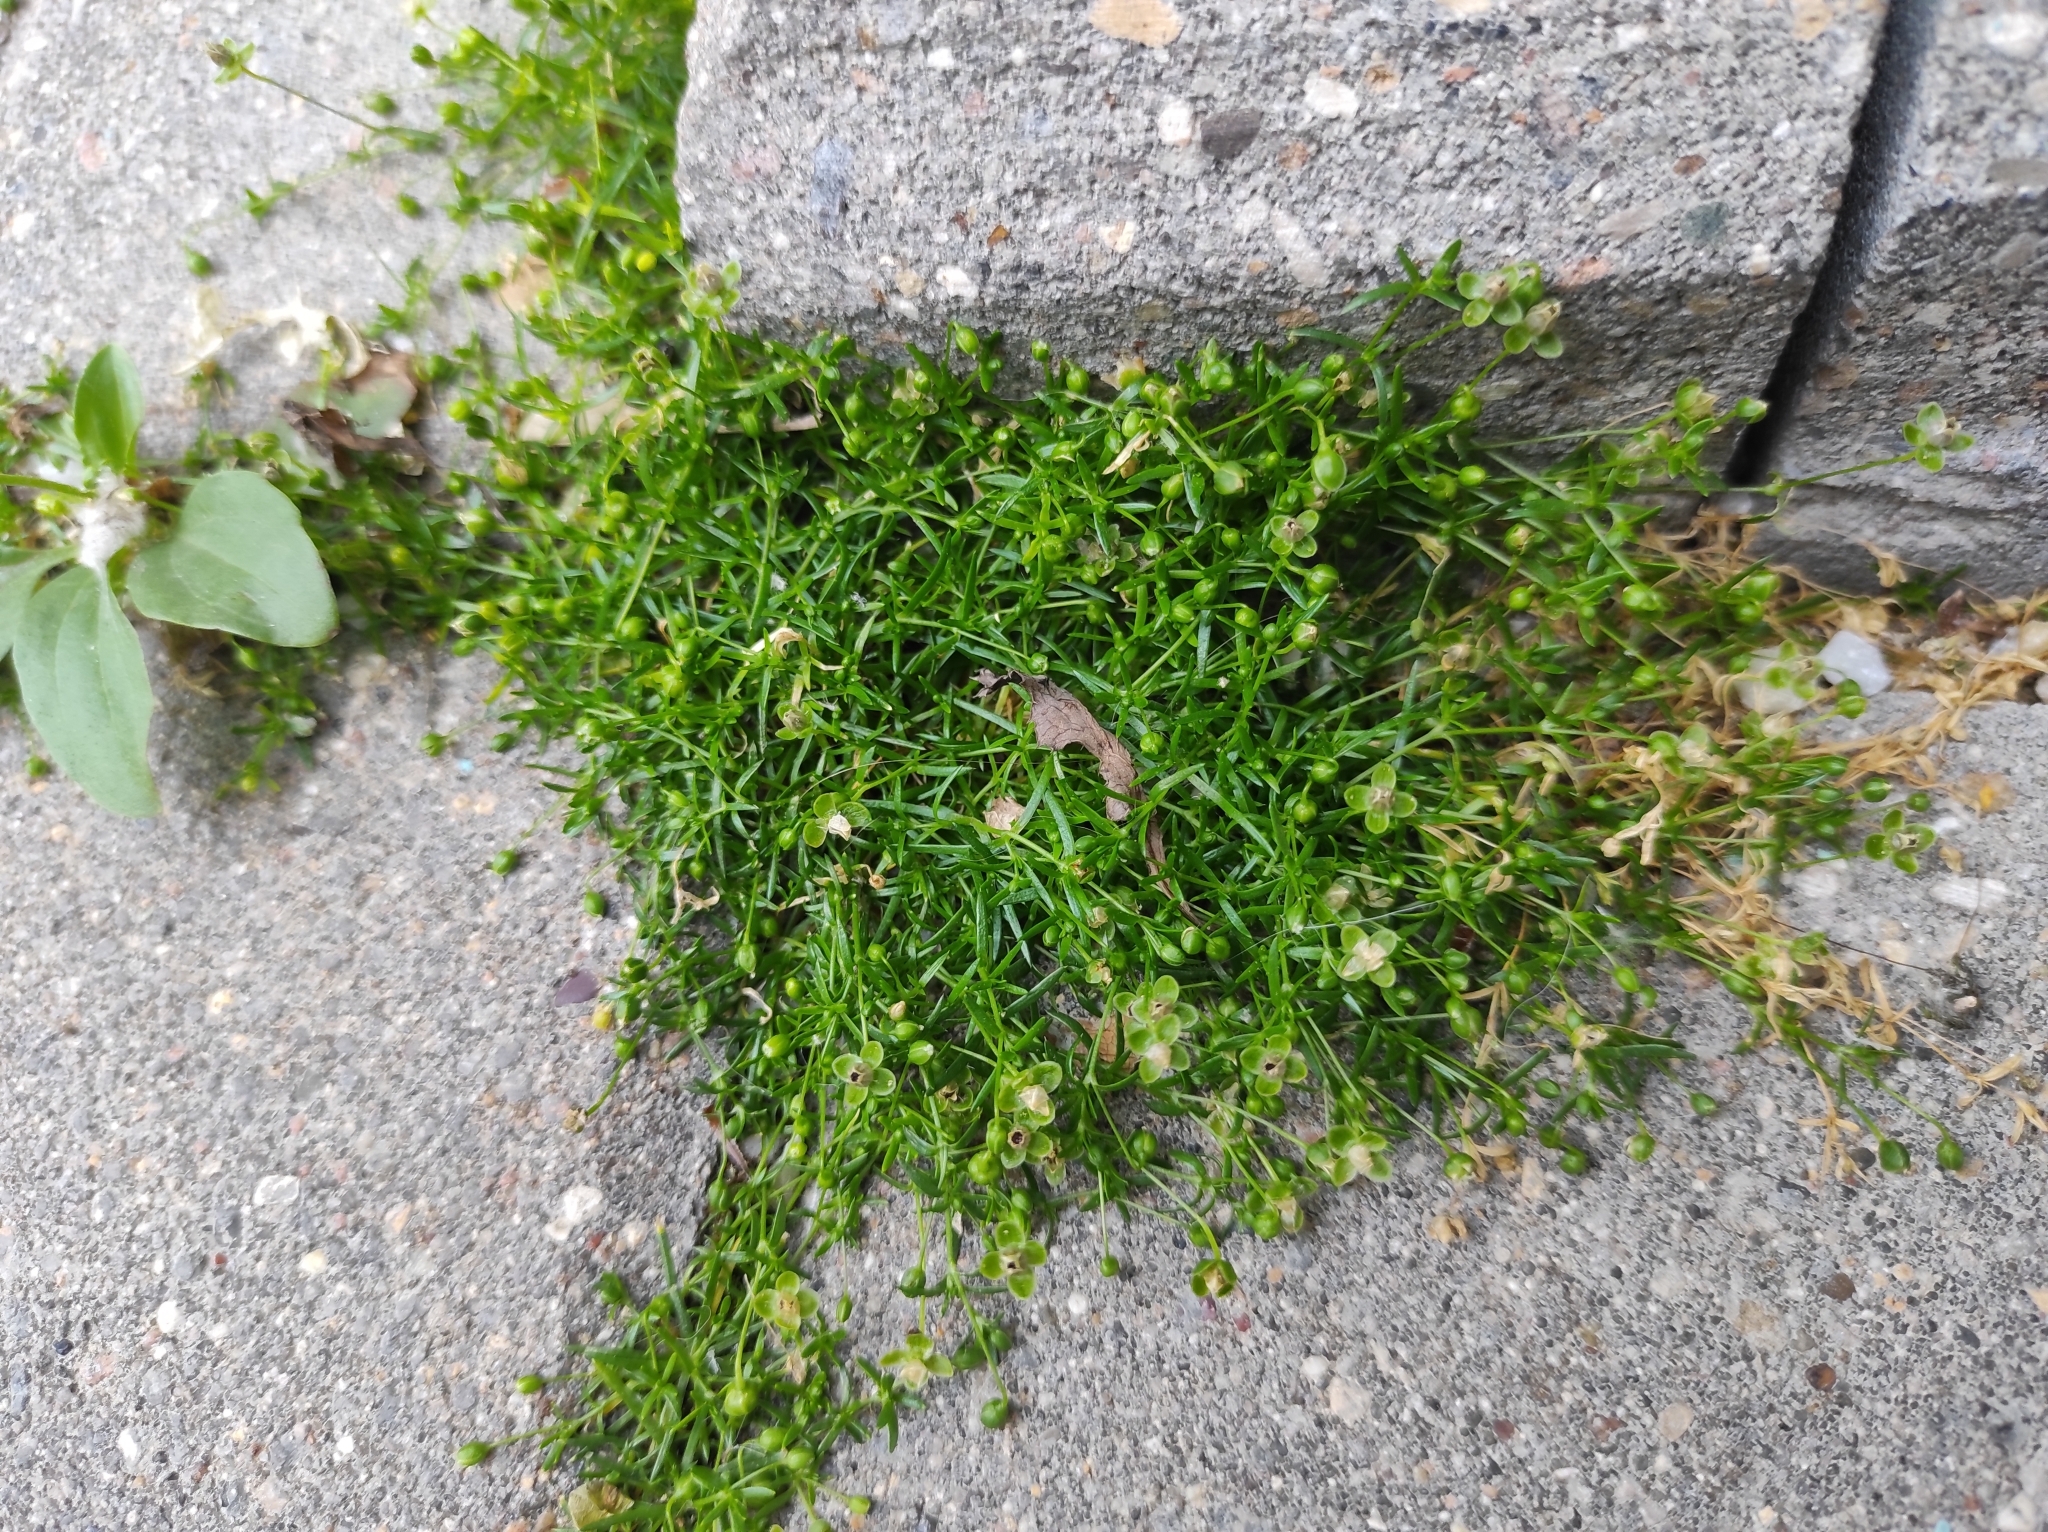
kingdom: Plantae
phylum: Tracheophyta
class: Magnoliopsida
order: Caryophyllales
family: Caryophyllaceae
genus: Sagina
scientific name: Sagina procumbens
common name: Procumbent pearlwort
